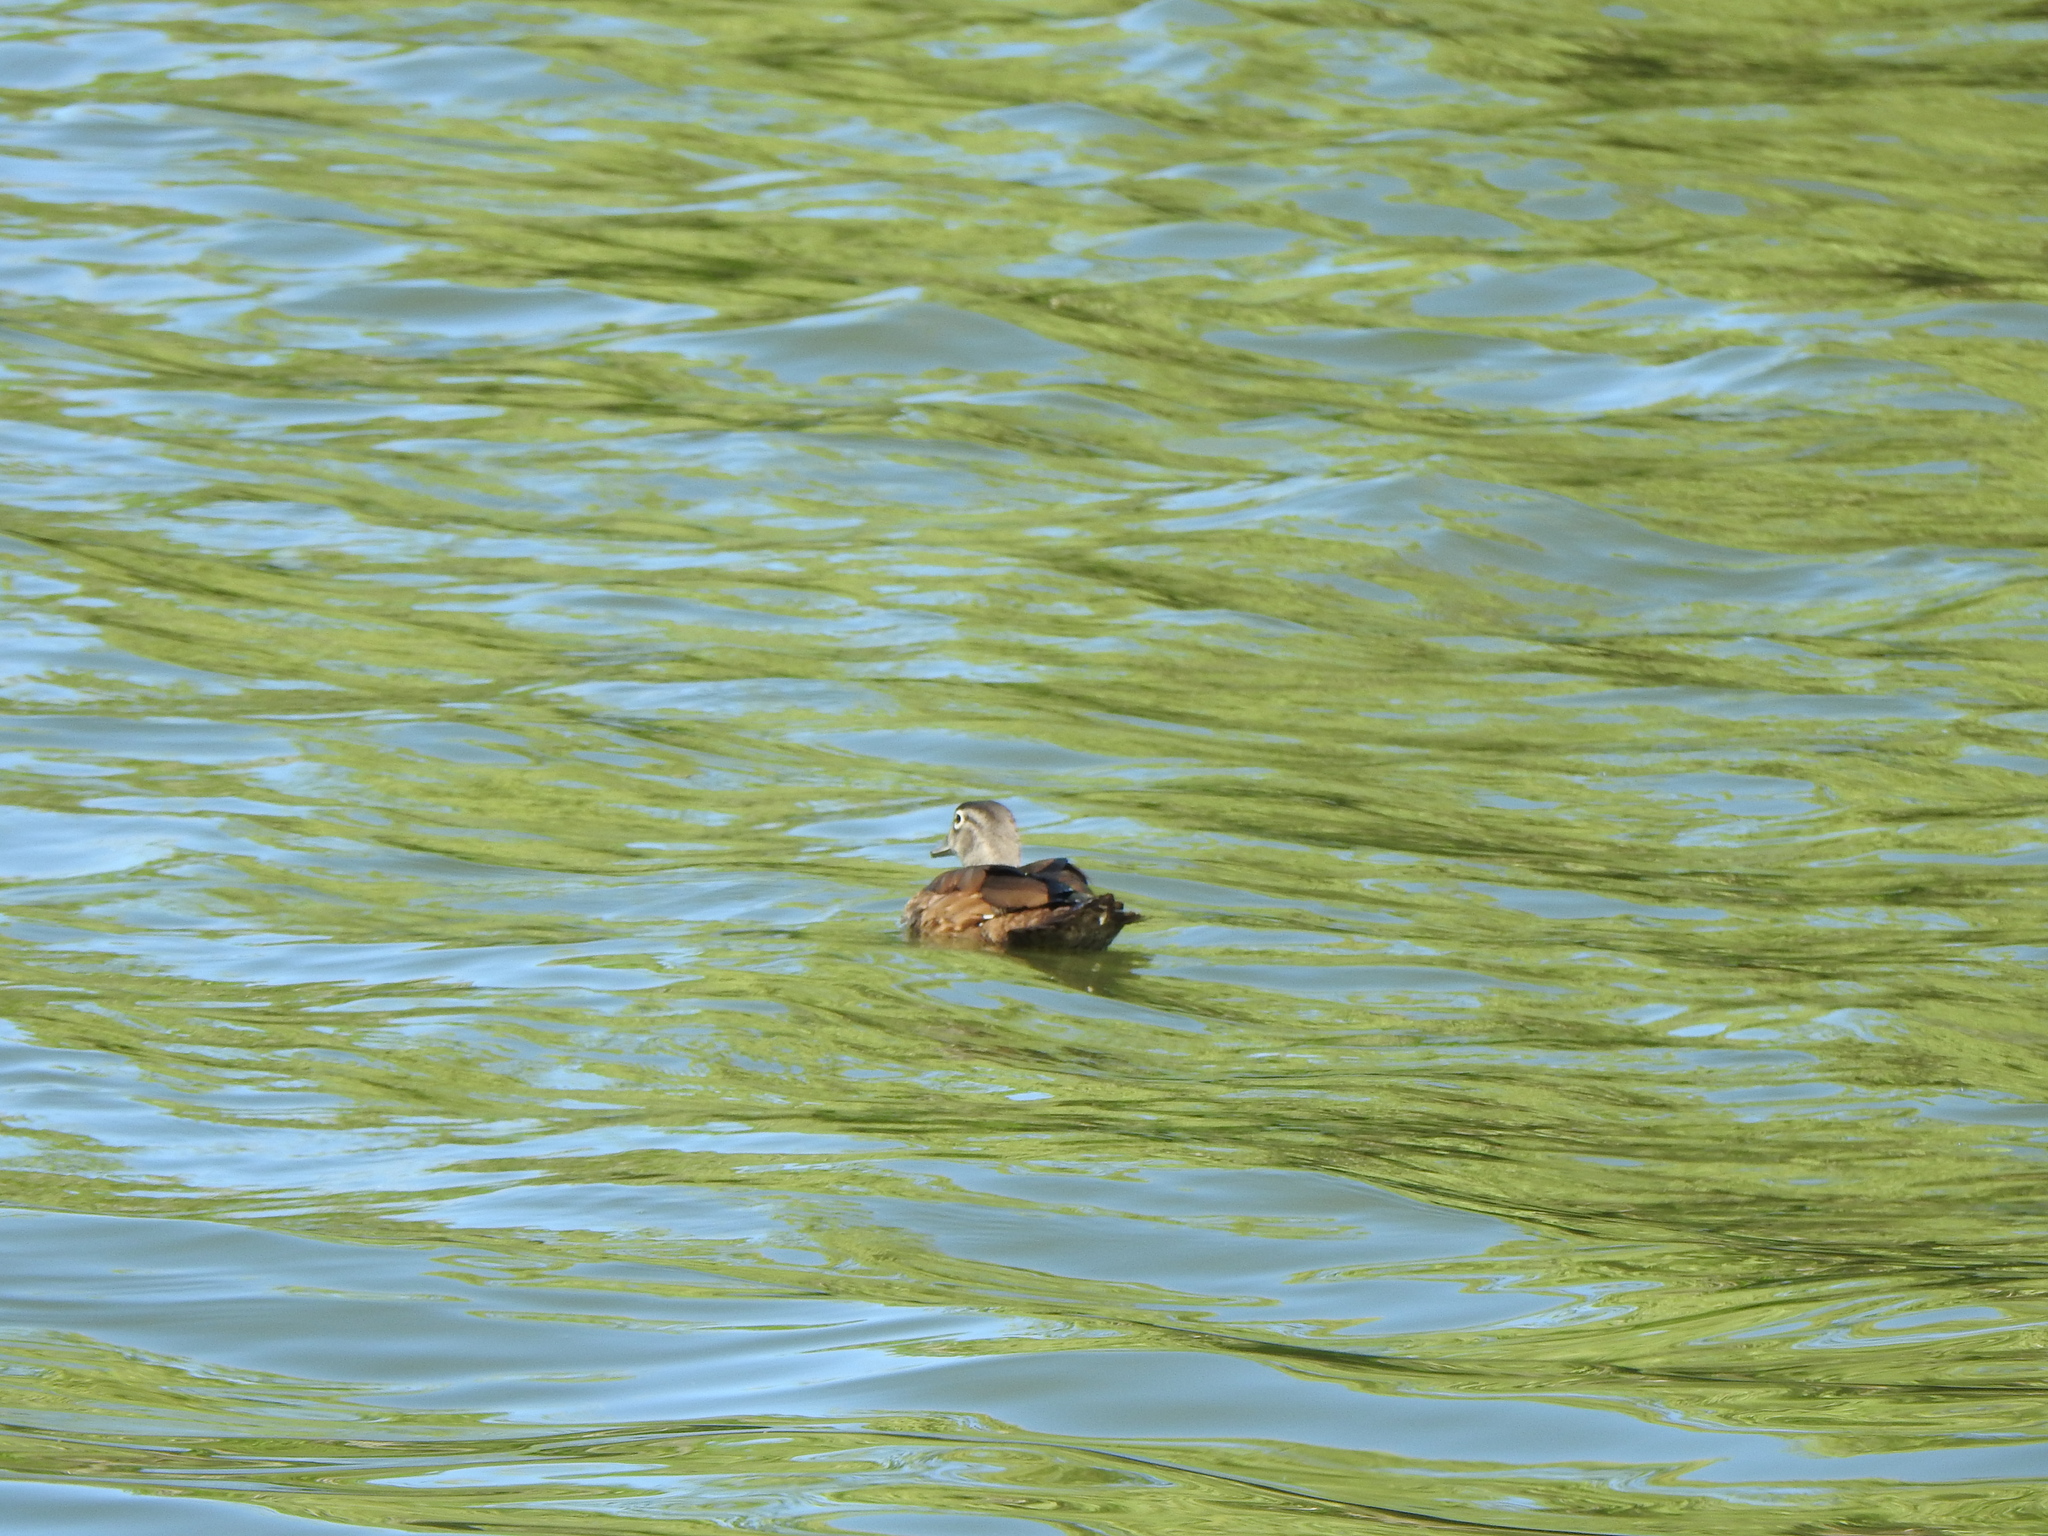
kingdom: Animalia
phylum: Chordata
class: Aves
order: Anseriformes
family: Anatidae
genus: Aix
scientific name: Aix sponsa
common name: Wood duck
